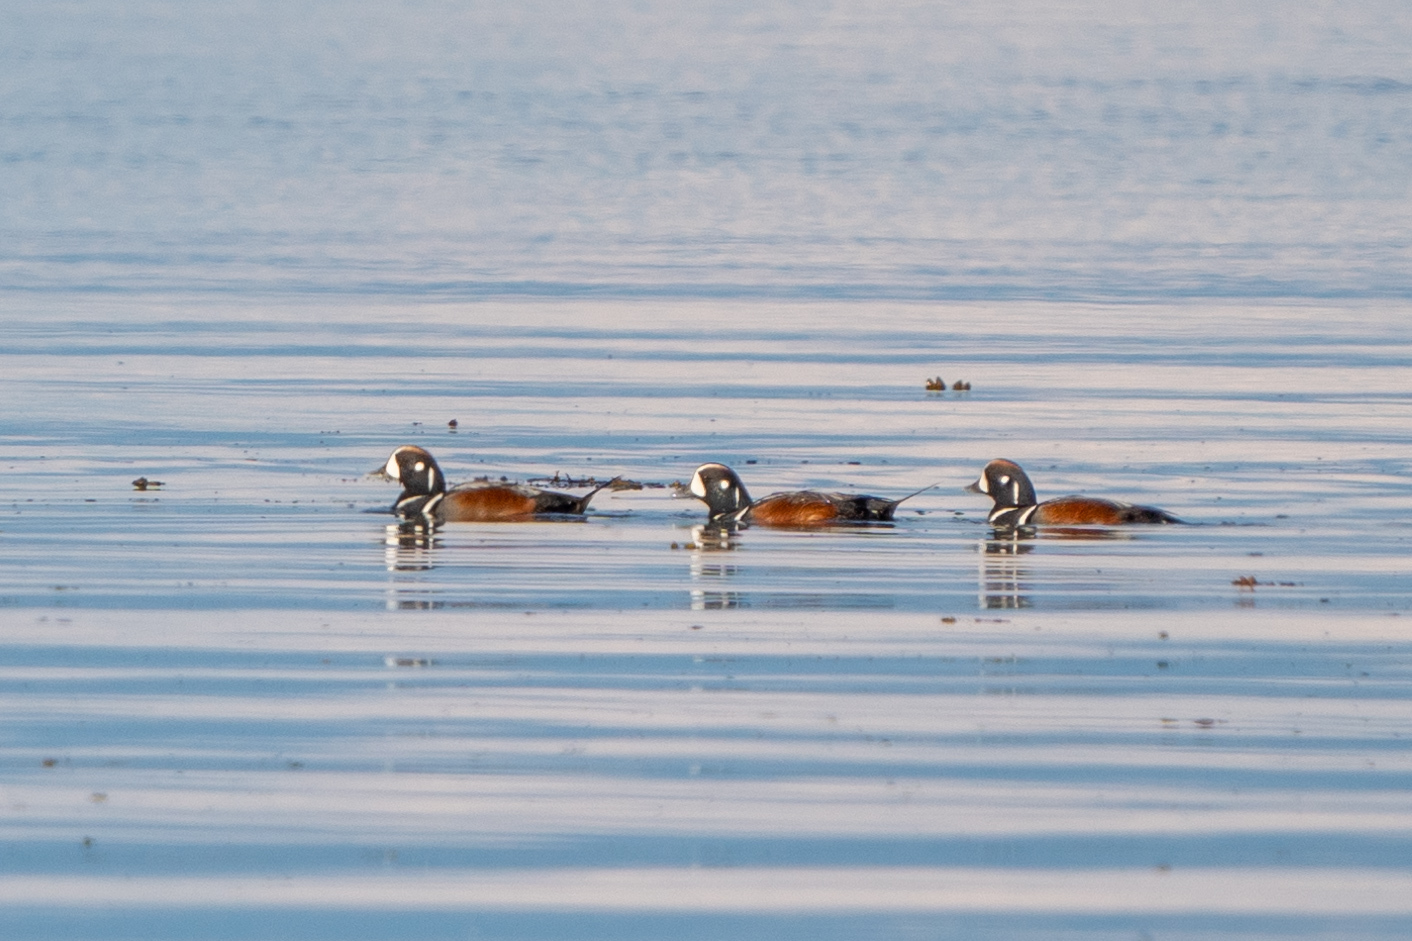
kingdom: Animalia
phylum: Chordata
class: Aves
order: Anseriformes
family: Anatidae
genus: Histrionicus
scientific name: Histrionicus histrionicus
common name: Harlequin duck
